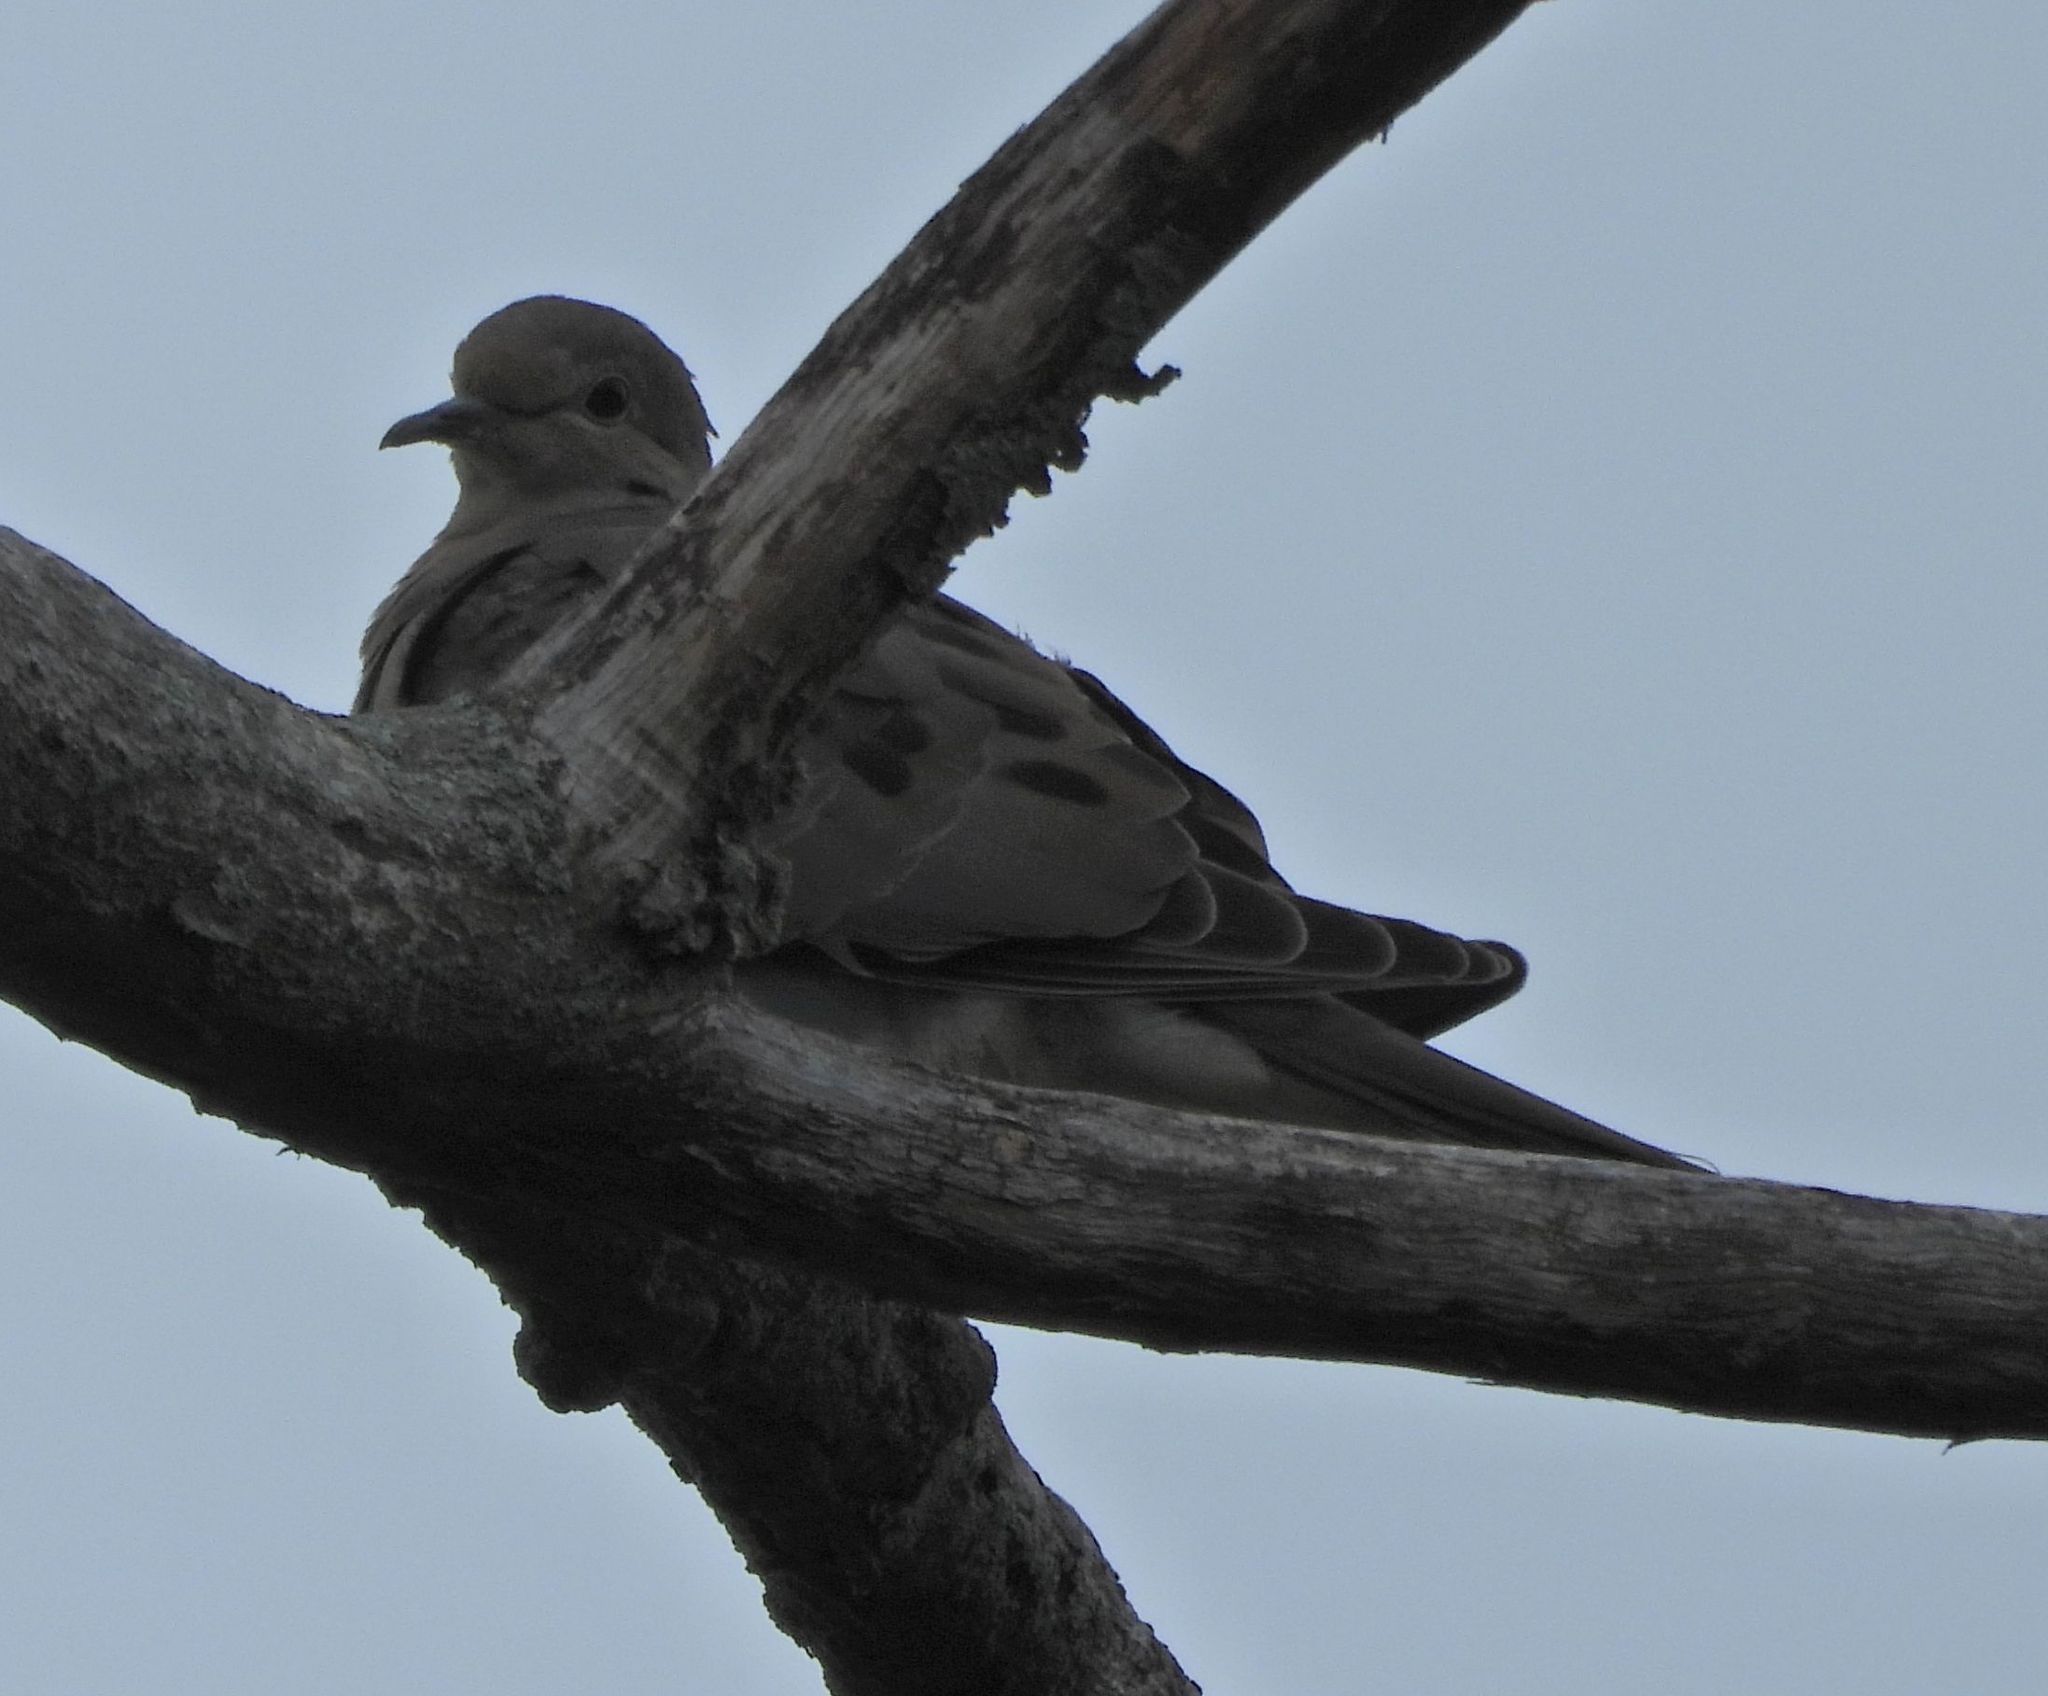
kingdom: Animalia
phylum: Chordata
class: Aves
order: Columbiformes
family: Columbidae
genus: Zenaida
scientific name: Zenaida macroura
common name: Mourning dove
